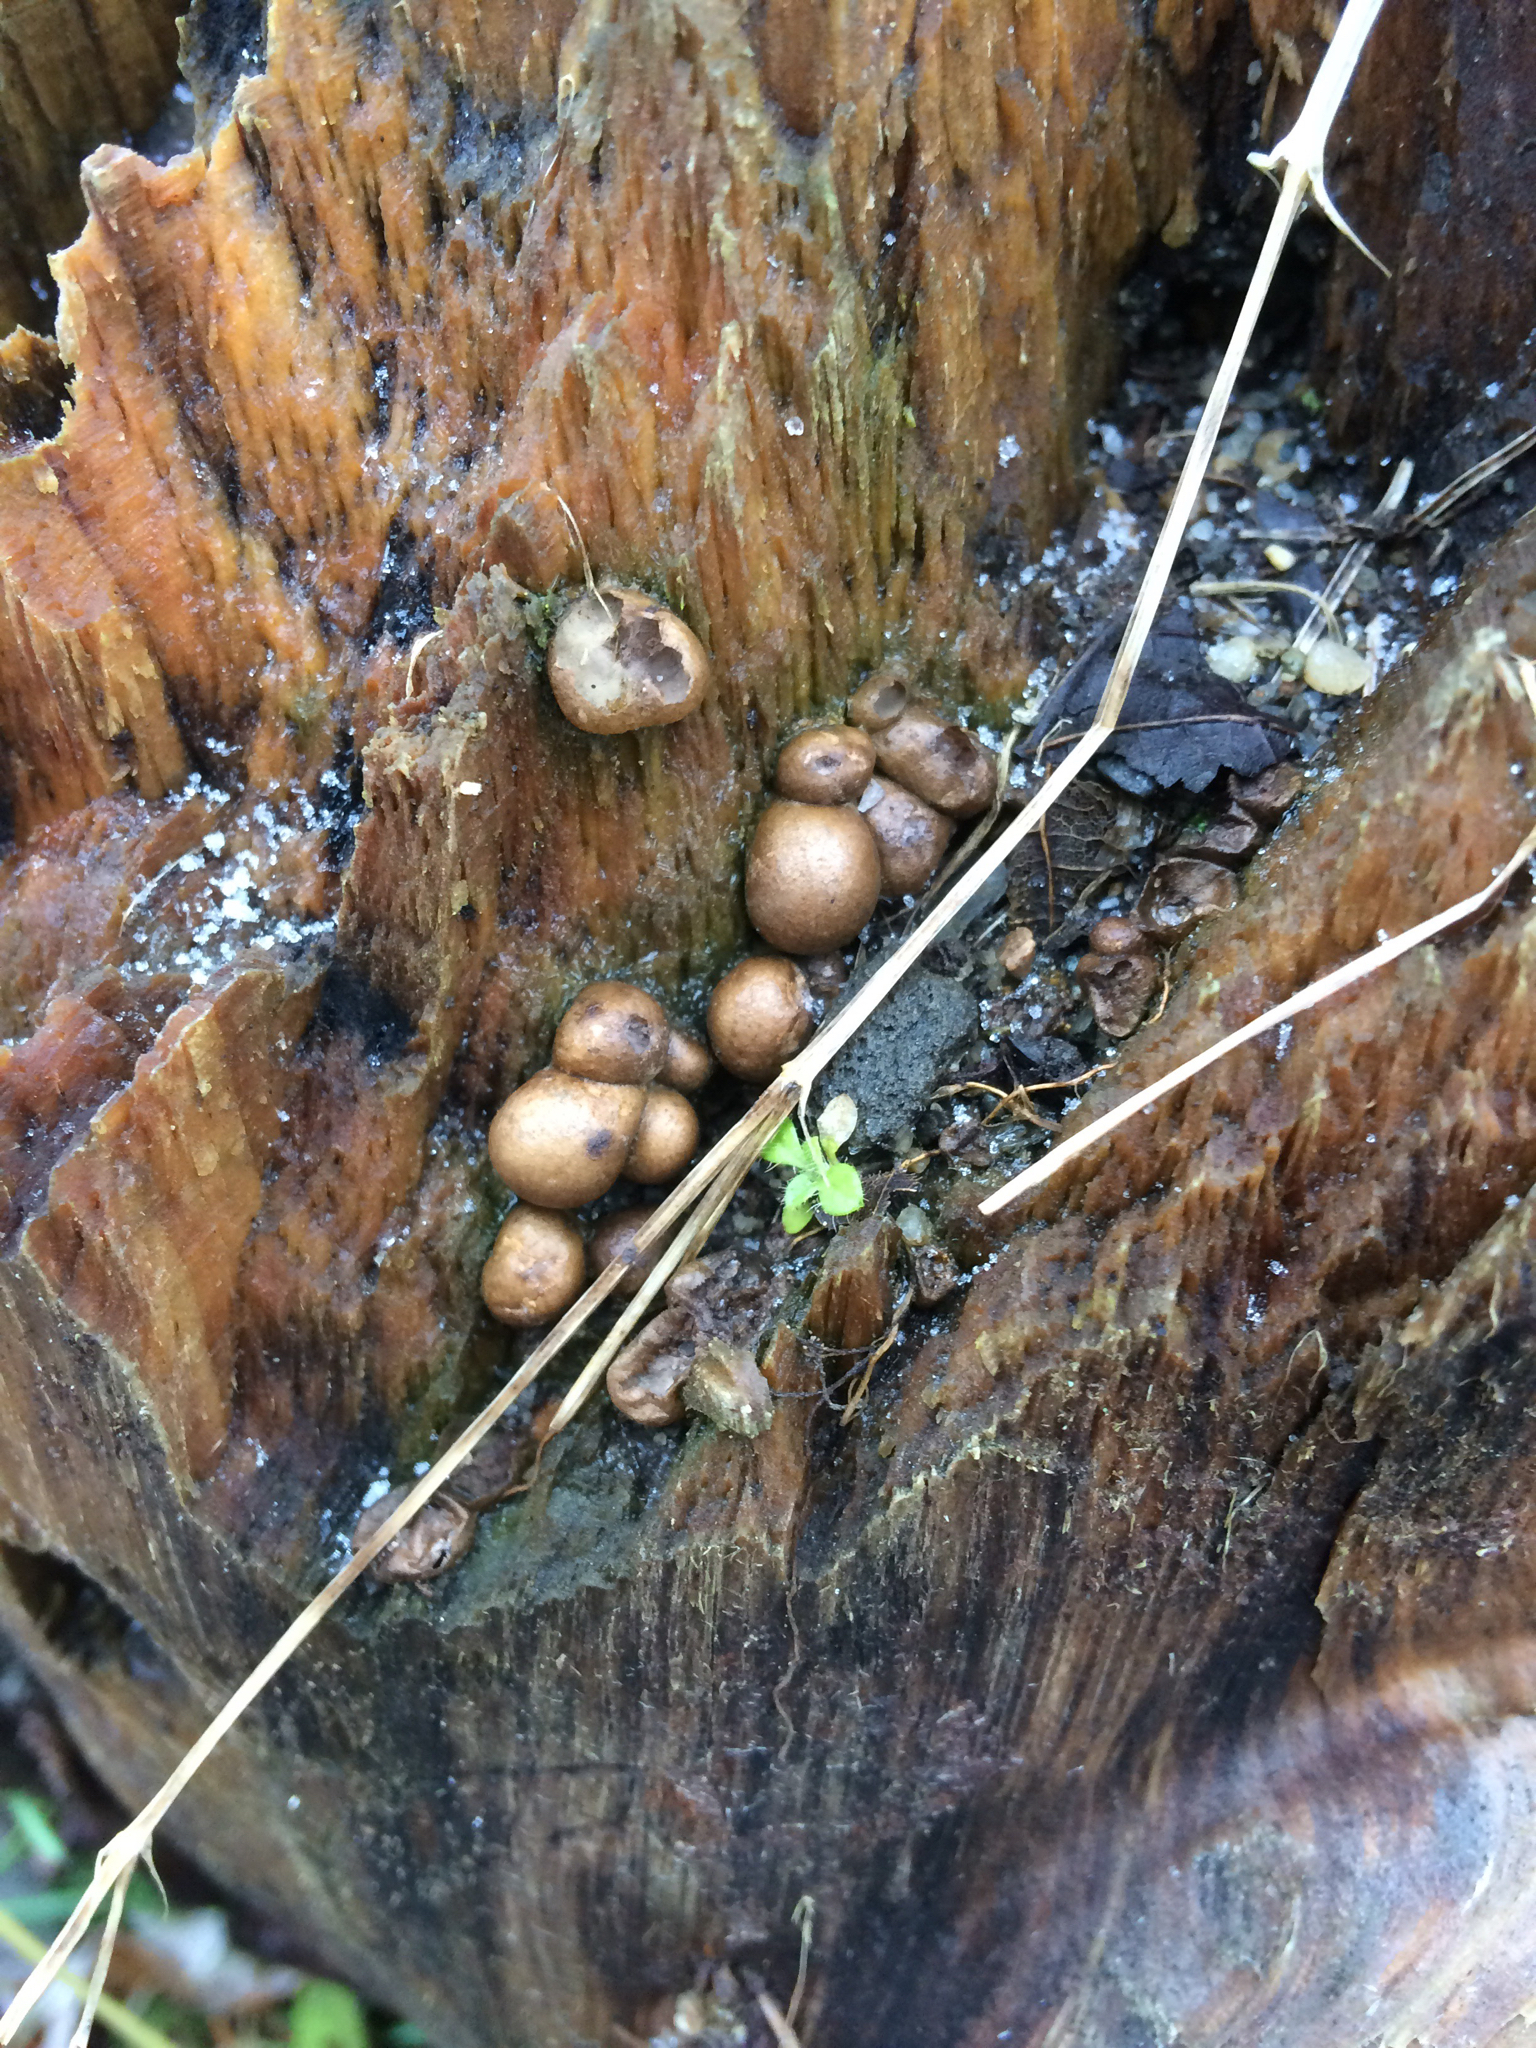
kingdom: Fungi
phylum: Basidiomycota
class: Agaricomycetes
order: Agaricales
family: Lycoperdaceae
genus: Apioperdon
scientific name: Apioperdon pyriforme
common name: Pear-shaped puffball
